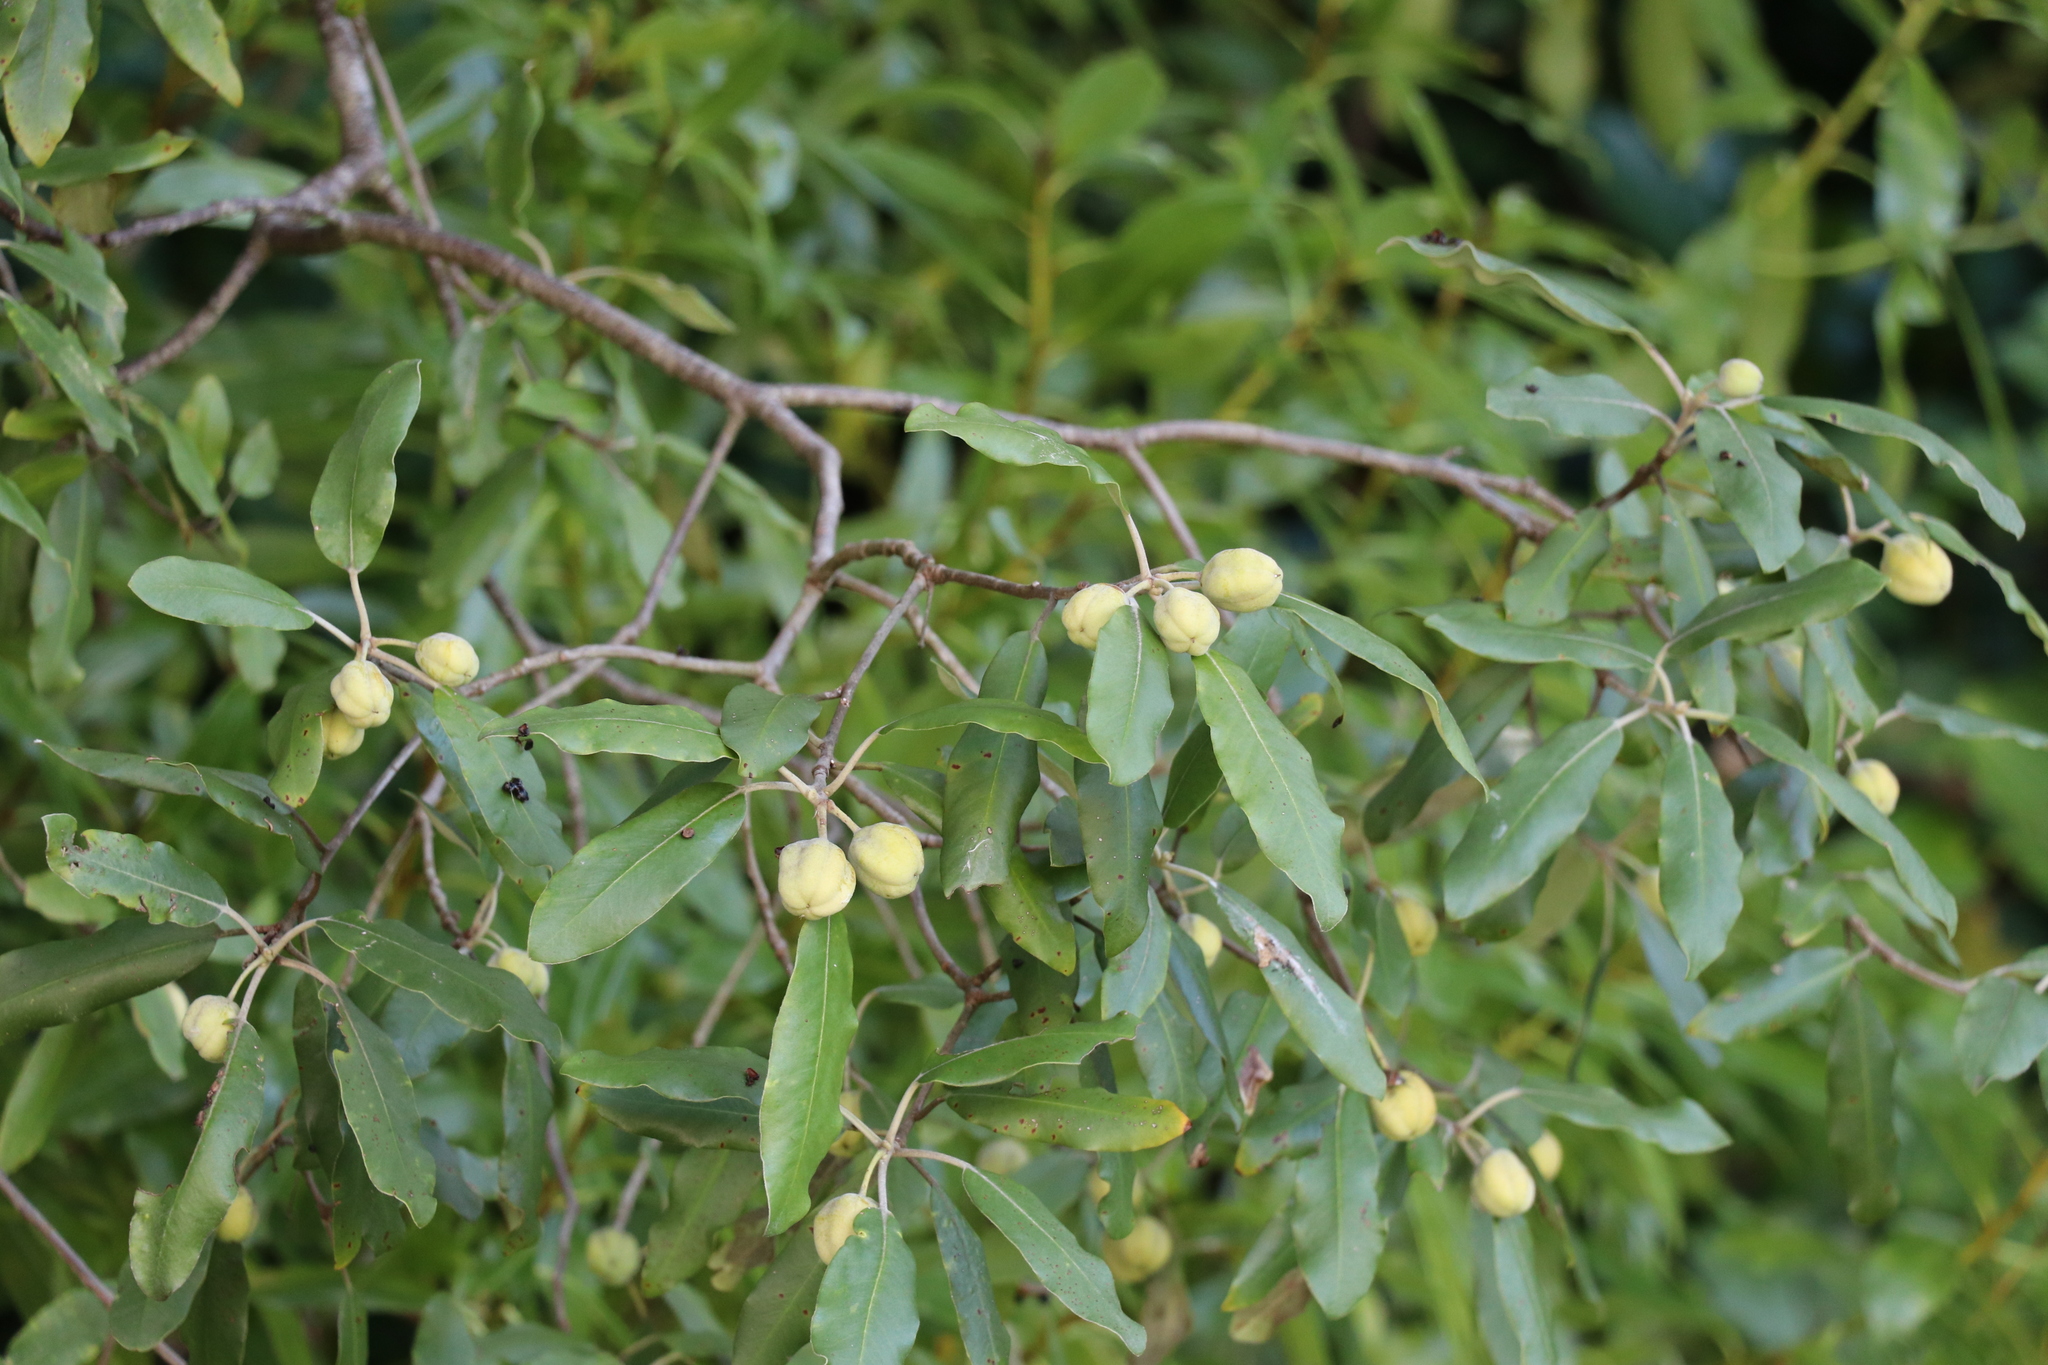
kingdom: Plantae
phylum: Tracheophyta
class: Magnoliopsida
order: Apiales
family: Pittosporaceae
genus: Pittosporum
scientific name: Pittosporum crassifolium
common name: Karo
